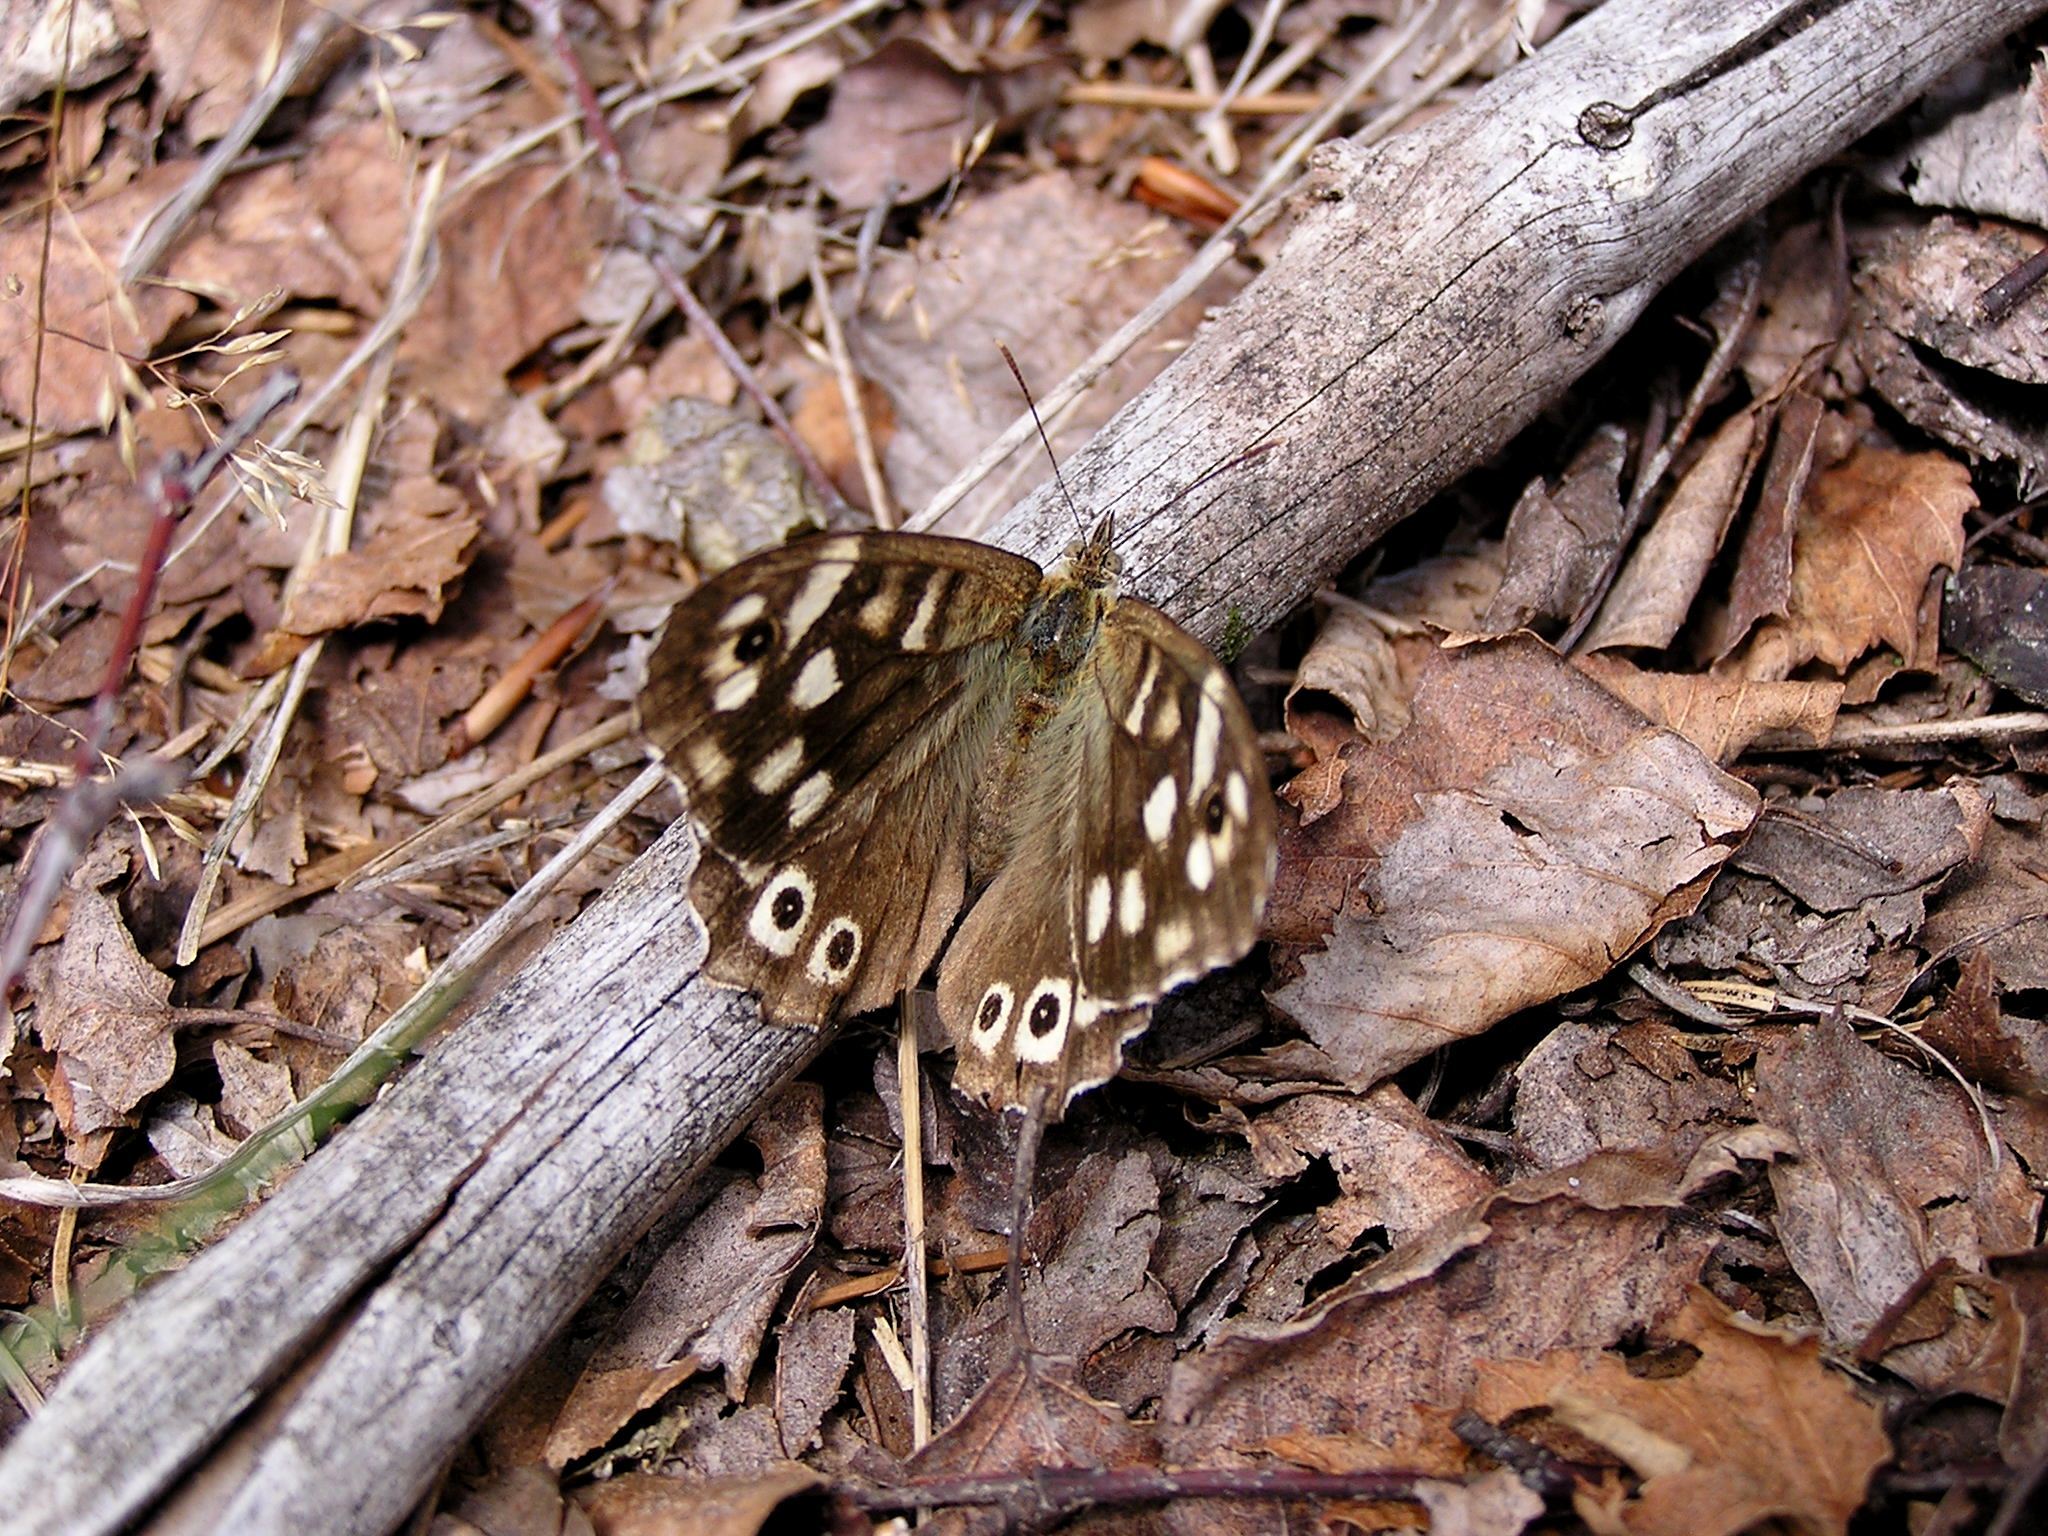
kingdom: Animalia
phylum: Arthropoda
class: Insecta
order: Lepidoptera
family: Nymphalidae
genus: Pararge
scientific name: Pararge aegeria
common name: Speckled wood
